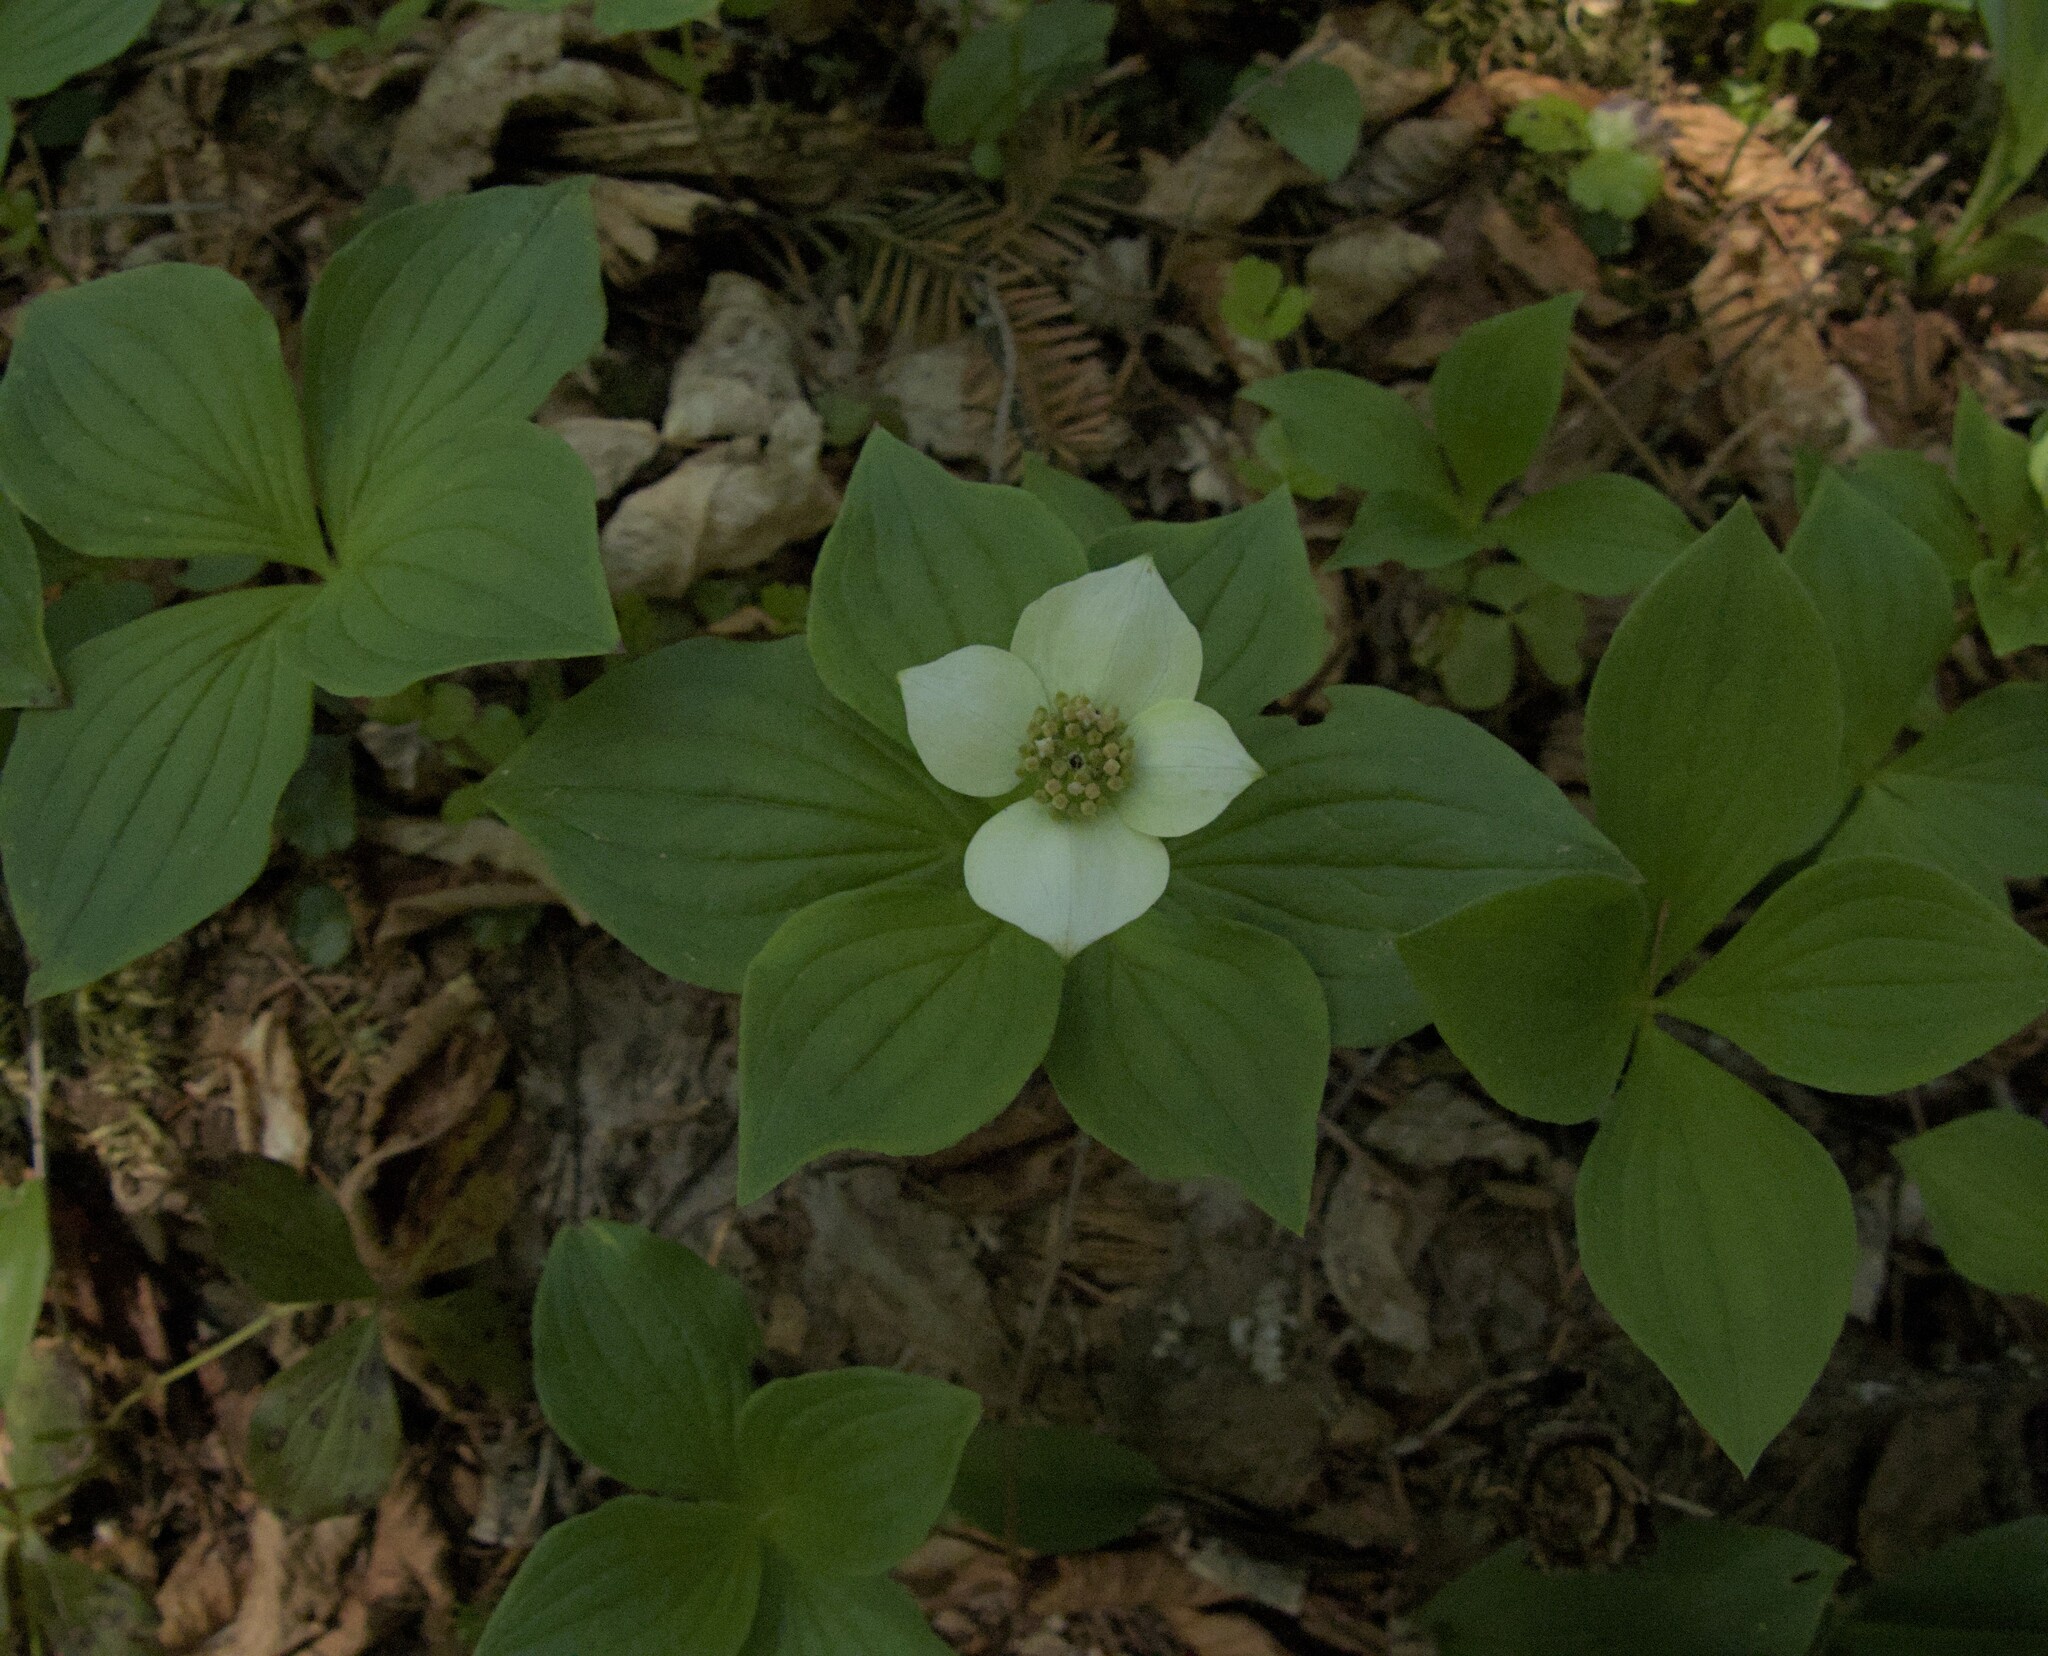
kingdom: Plantae
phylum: Tracheophyta
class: Magnoliopsida
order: Cornales
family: Cornaceae
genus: Cornus
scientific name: Cornus canadensis
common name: Creeping dogwood
